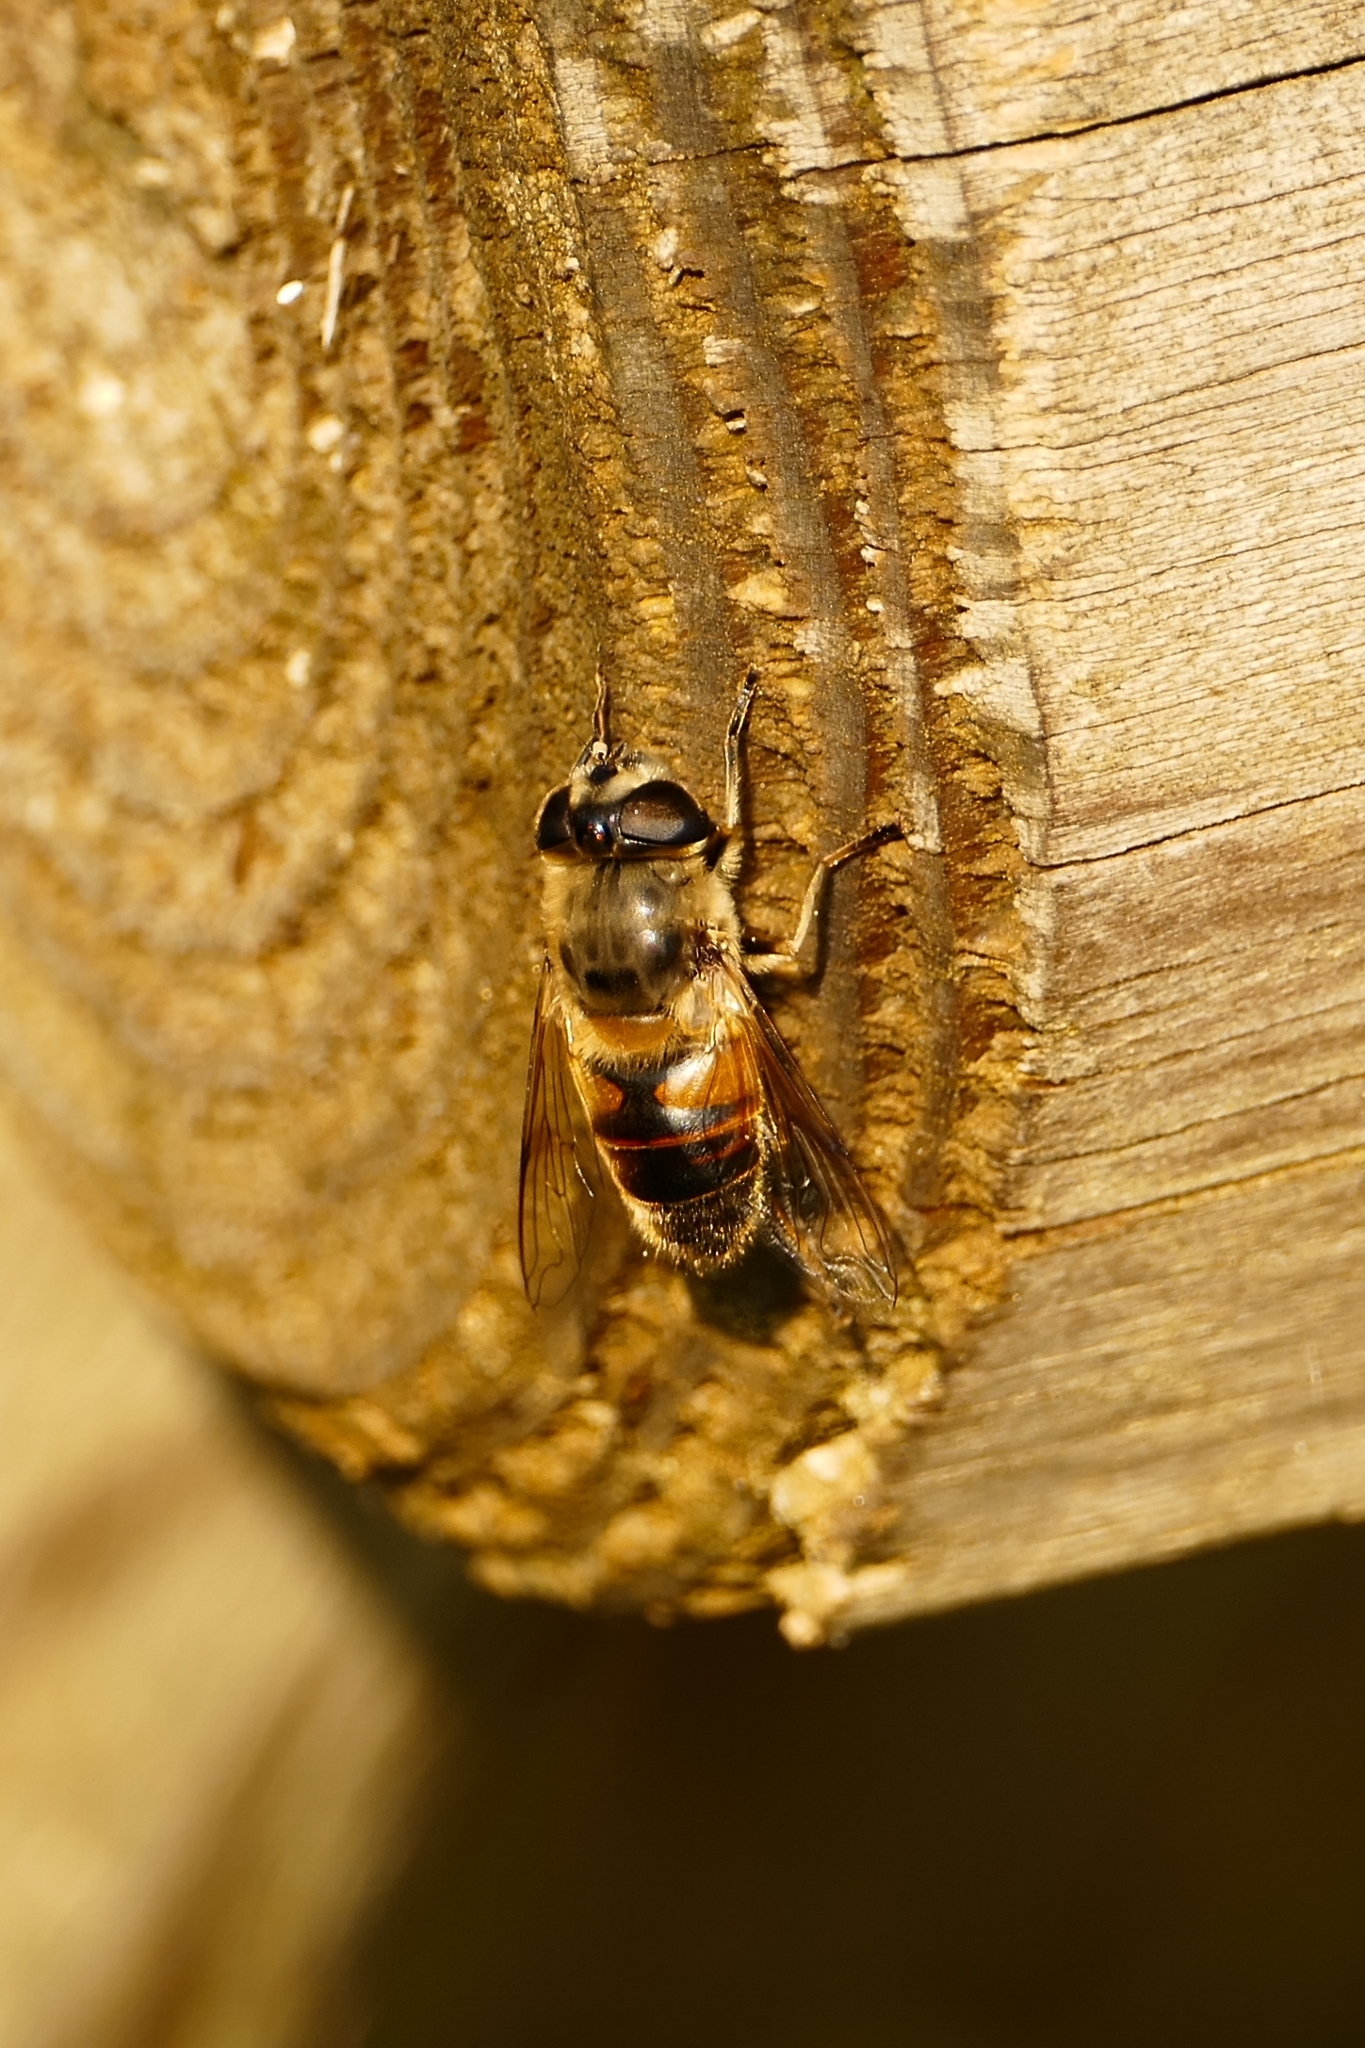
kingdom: Animalia
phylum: Arthropoda
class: Insecta
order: Diptera
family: Syrphidae
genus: Eristalis
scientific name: Eristalis tenax
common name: Drone fly
